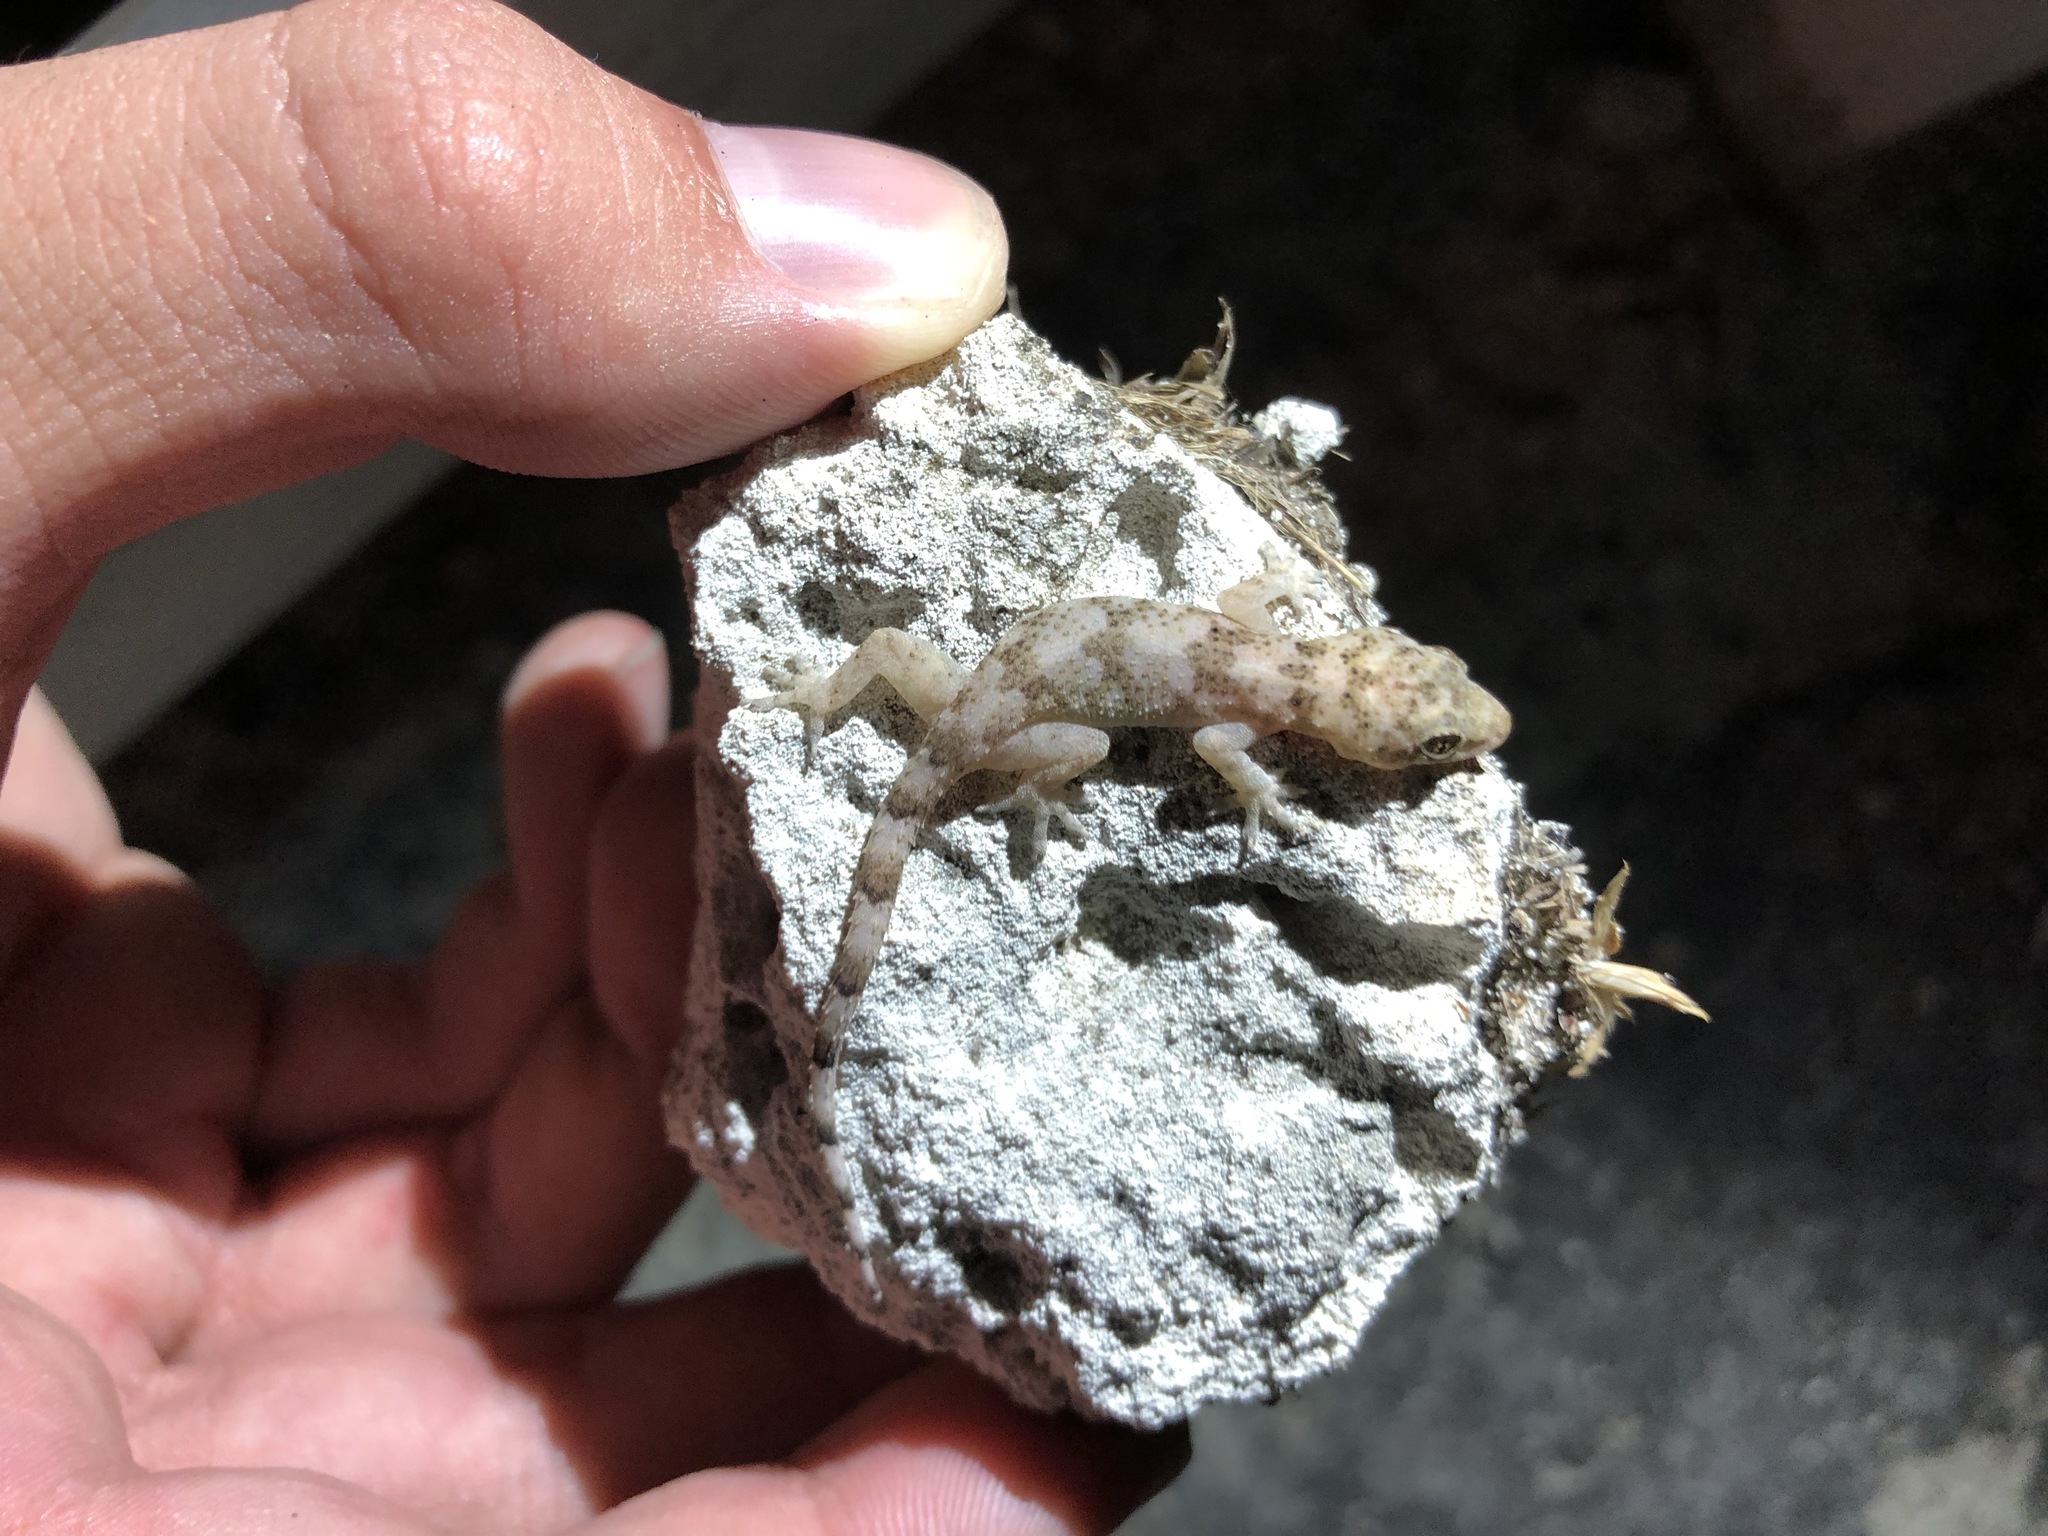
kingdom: Animalia
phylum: Chordata
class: Squamata
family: Gekkonidae
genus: Hemidactylus
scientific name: Hemidactylus mabouia
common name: House gecko
